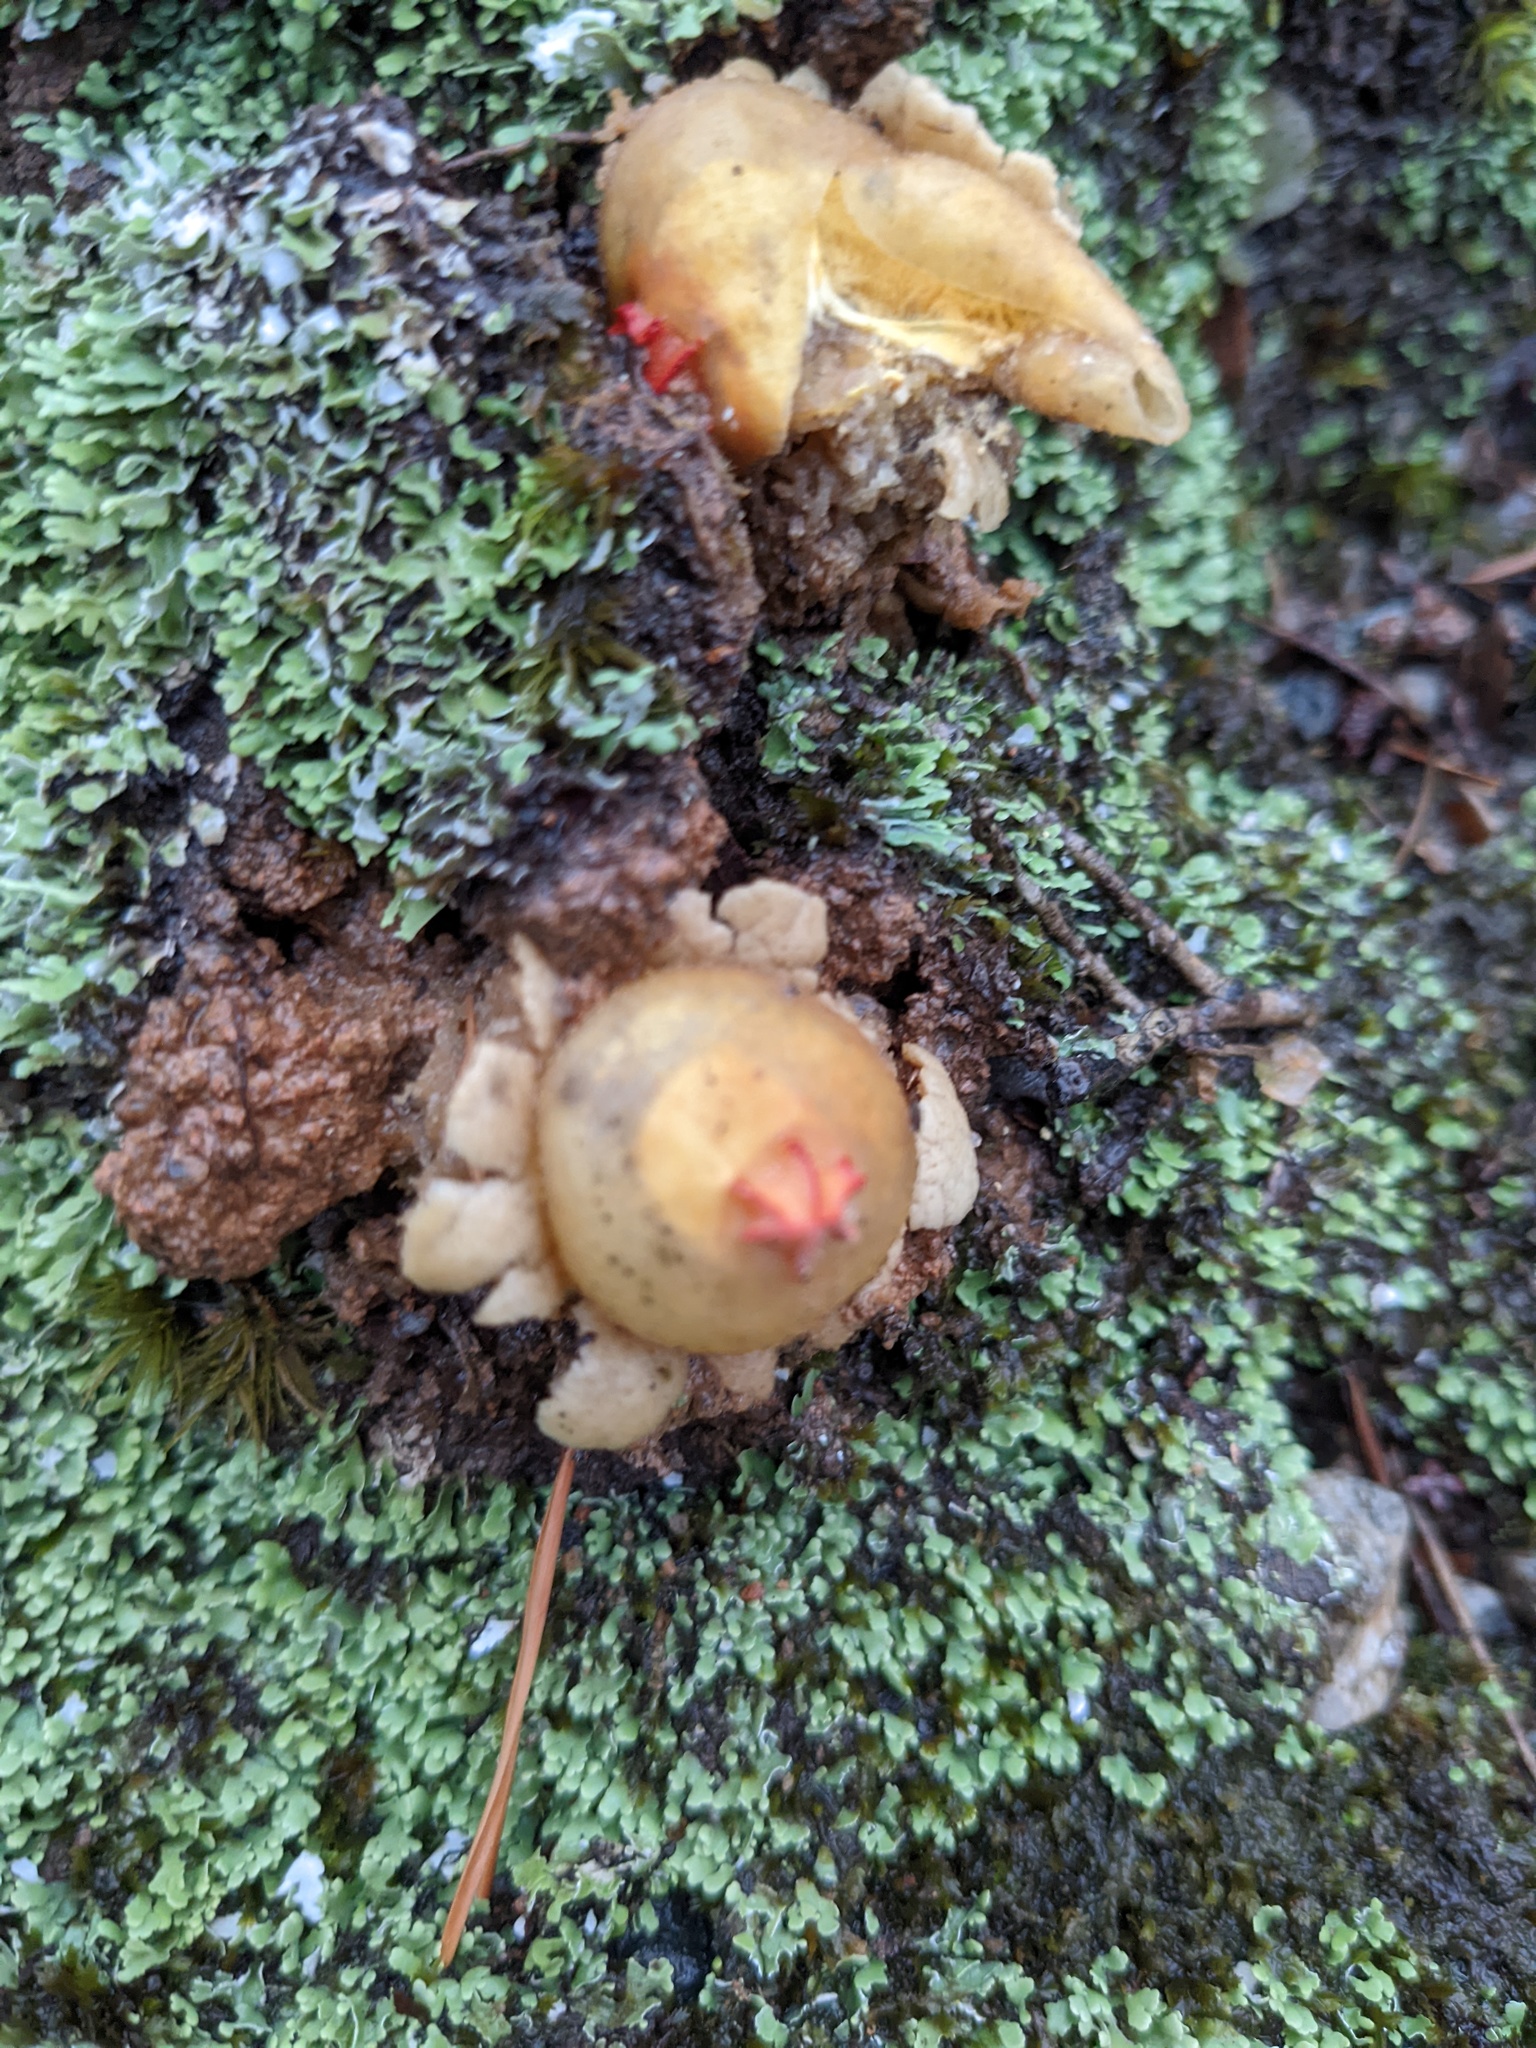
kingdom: Fungi
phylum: Basidiomycota
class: Agaricomycetes
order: Boletales
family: Calostomataceae
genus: Calostoma
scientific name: Calostoma lutescens
